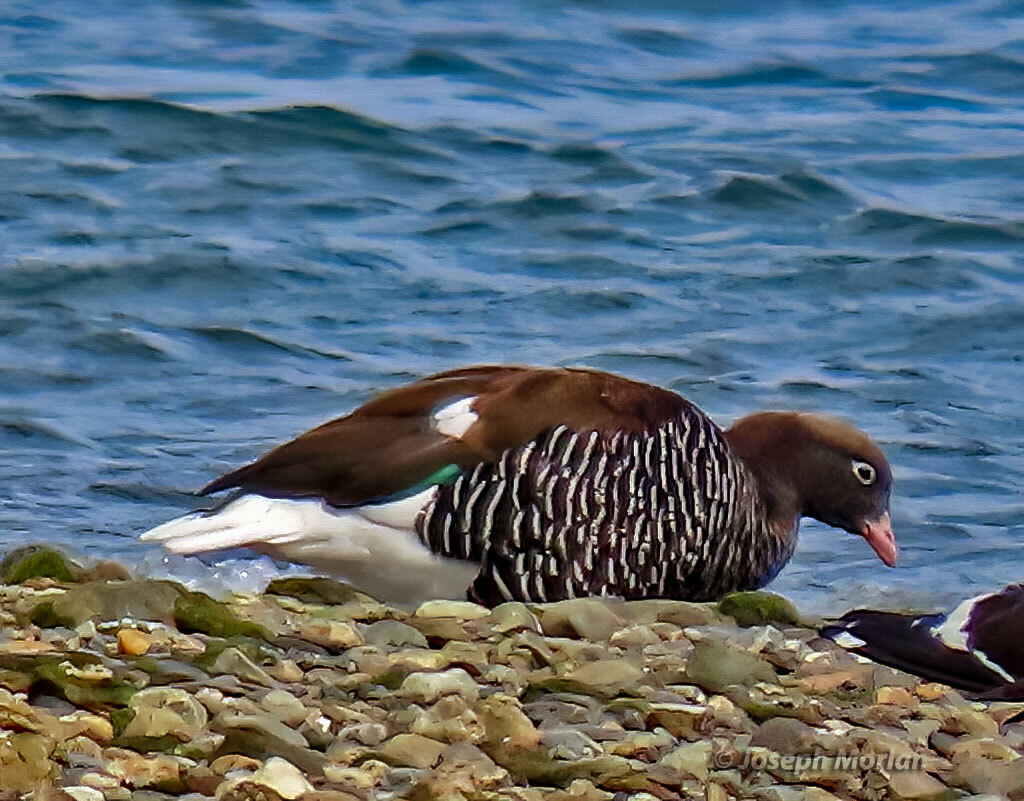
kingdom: Animalia
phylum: Chordata
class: Aves
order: Anseriformes
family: Anatidae
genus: Chloephaga
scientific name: Chloephaga hybrida
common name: Kelp goose
